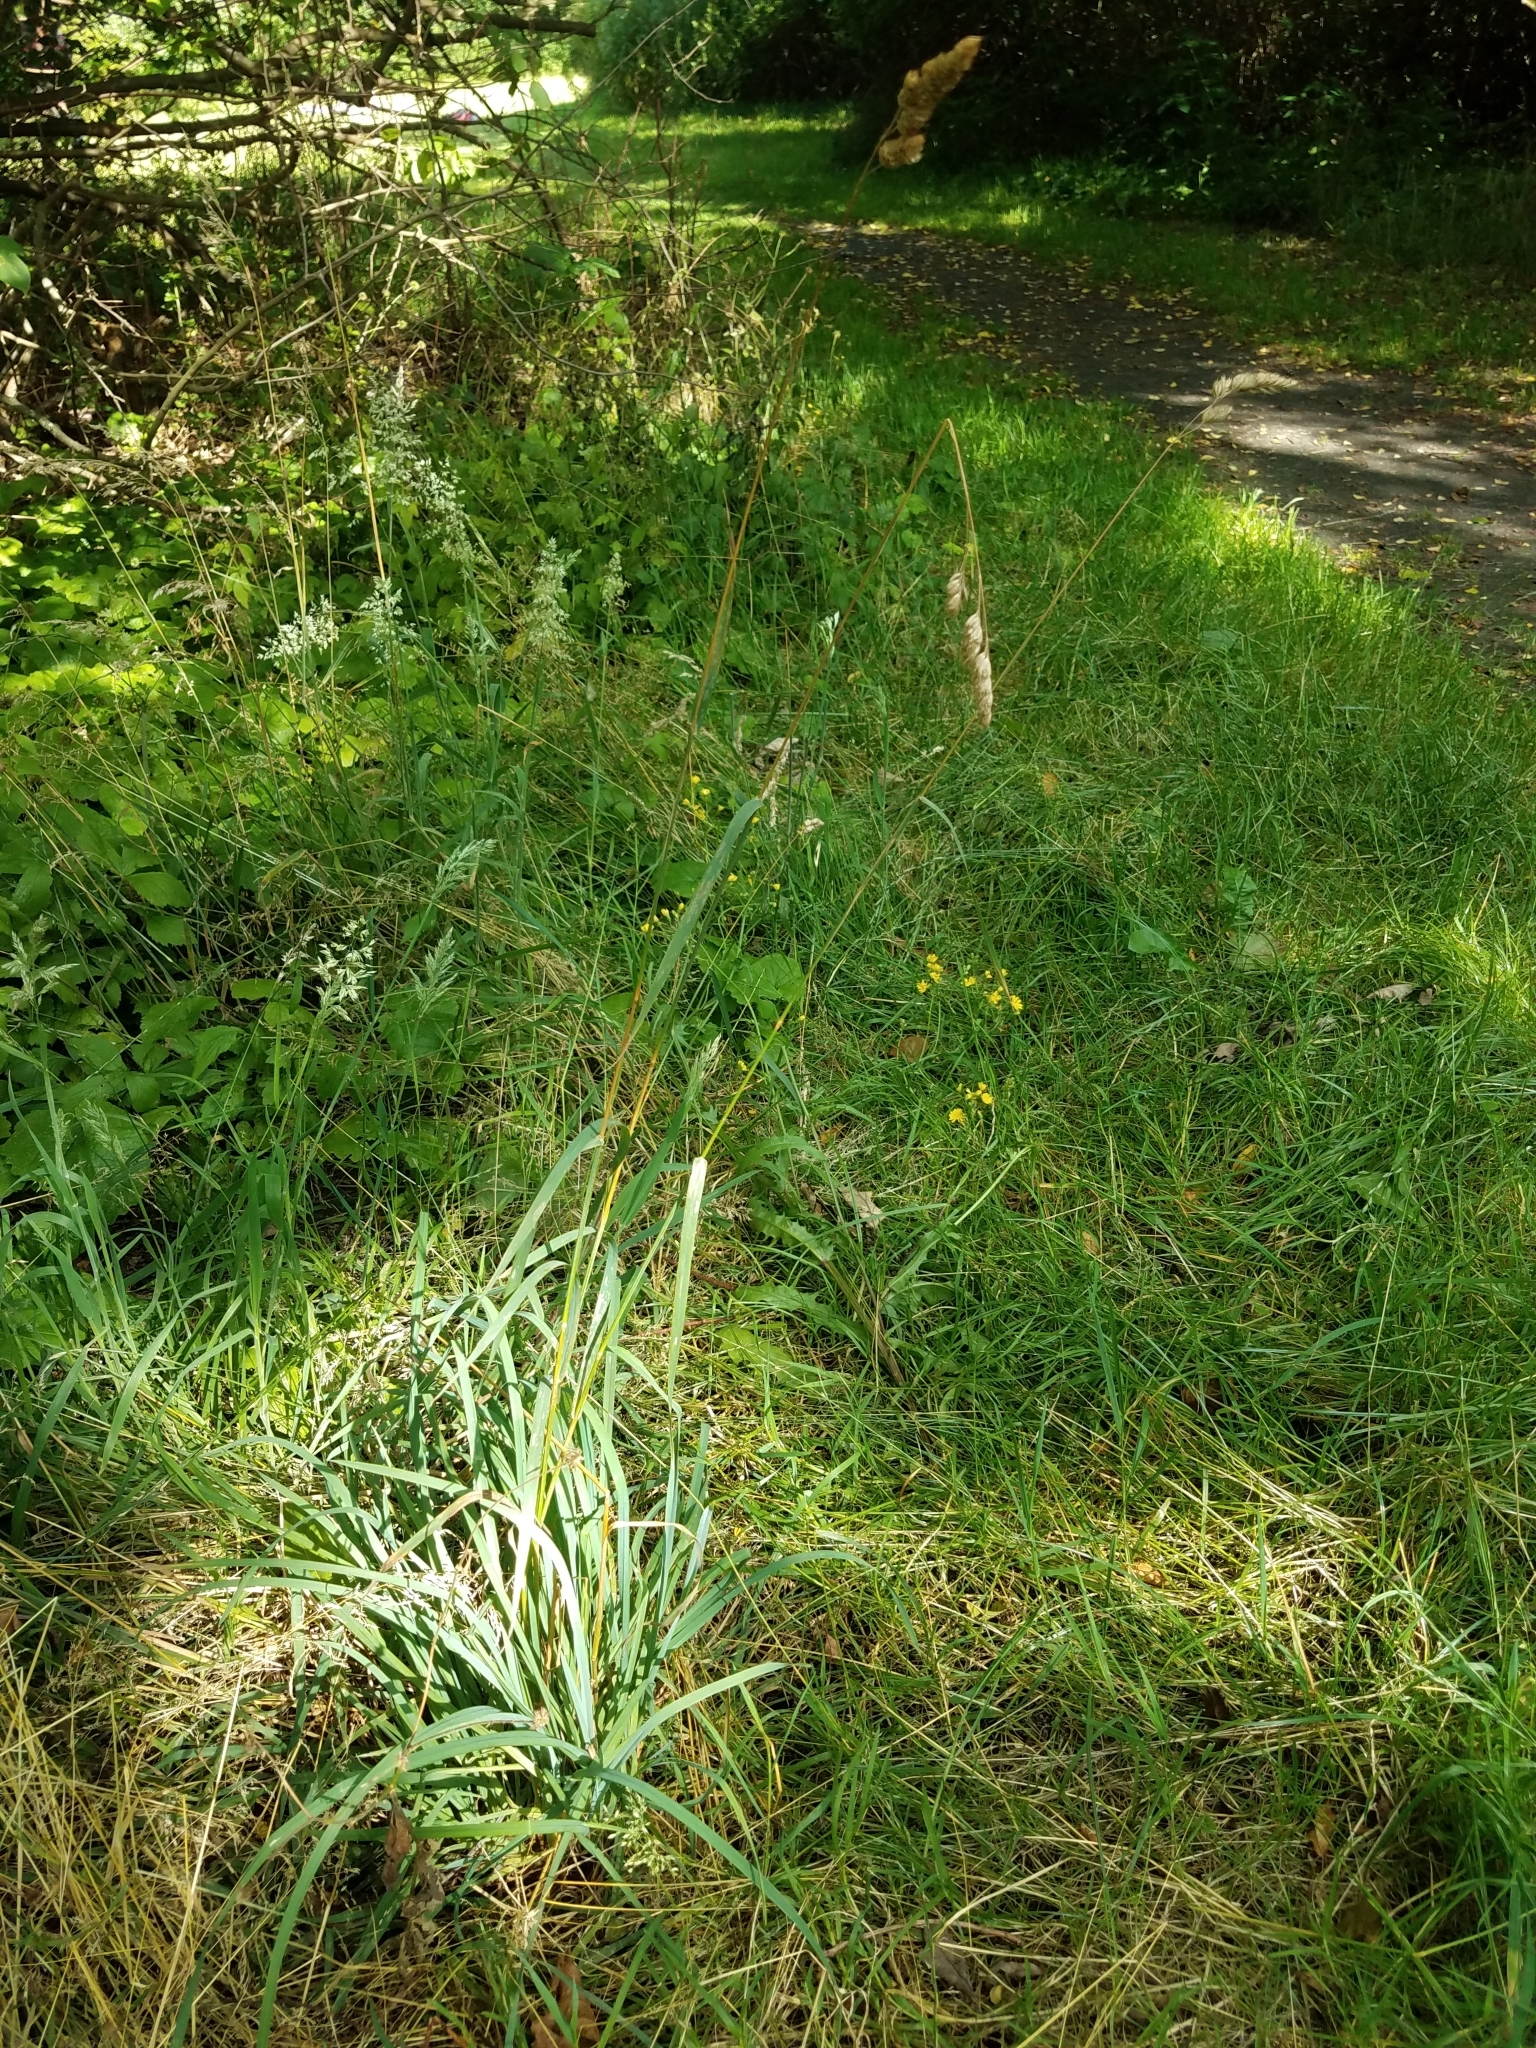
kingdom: Plantae
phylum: Tracheophyta
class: Liliopsida
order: Poales
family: Poaceae
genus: Dactylis
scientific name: Dactylis glomerata
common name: Orchardgrass
